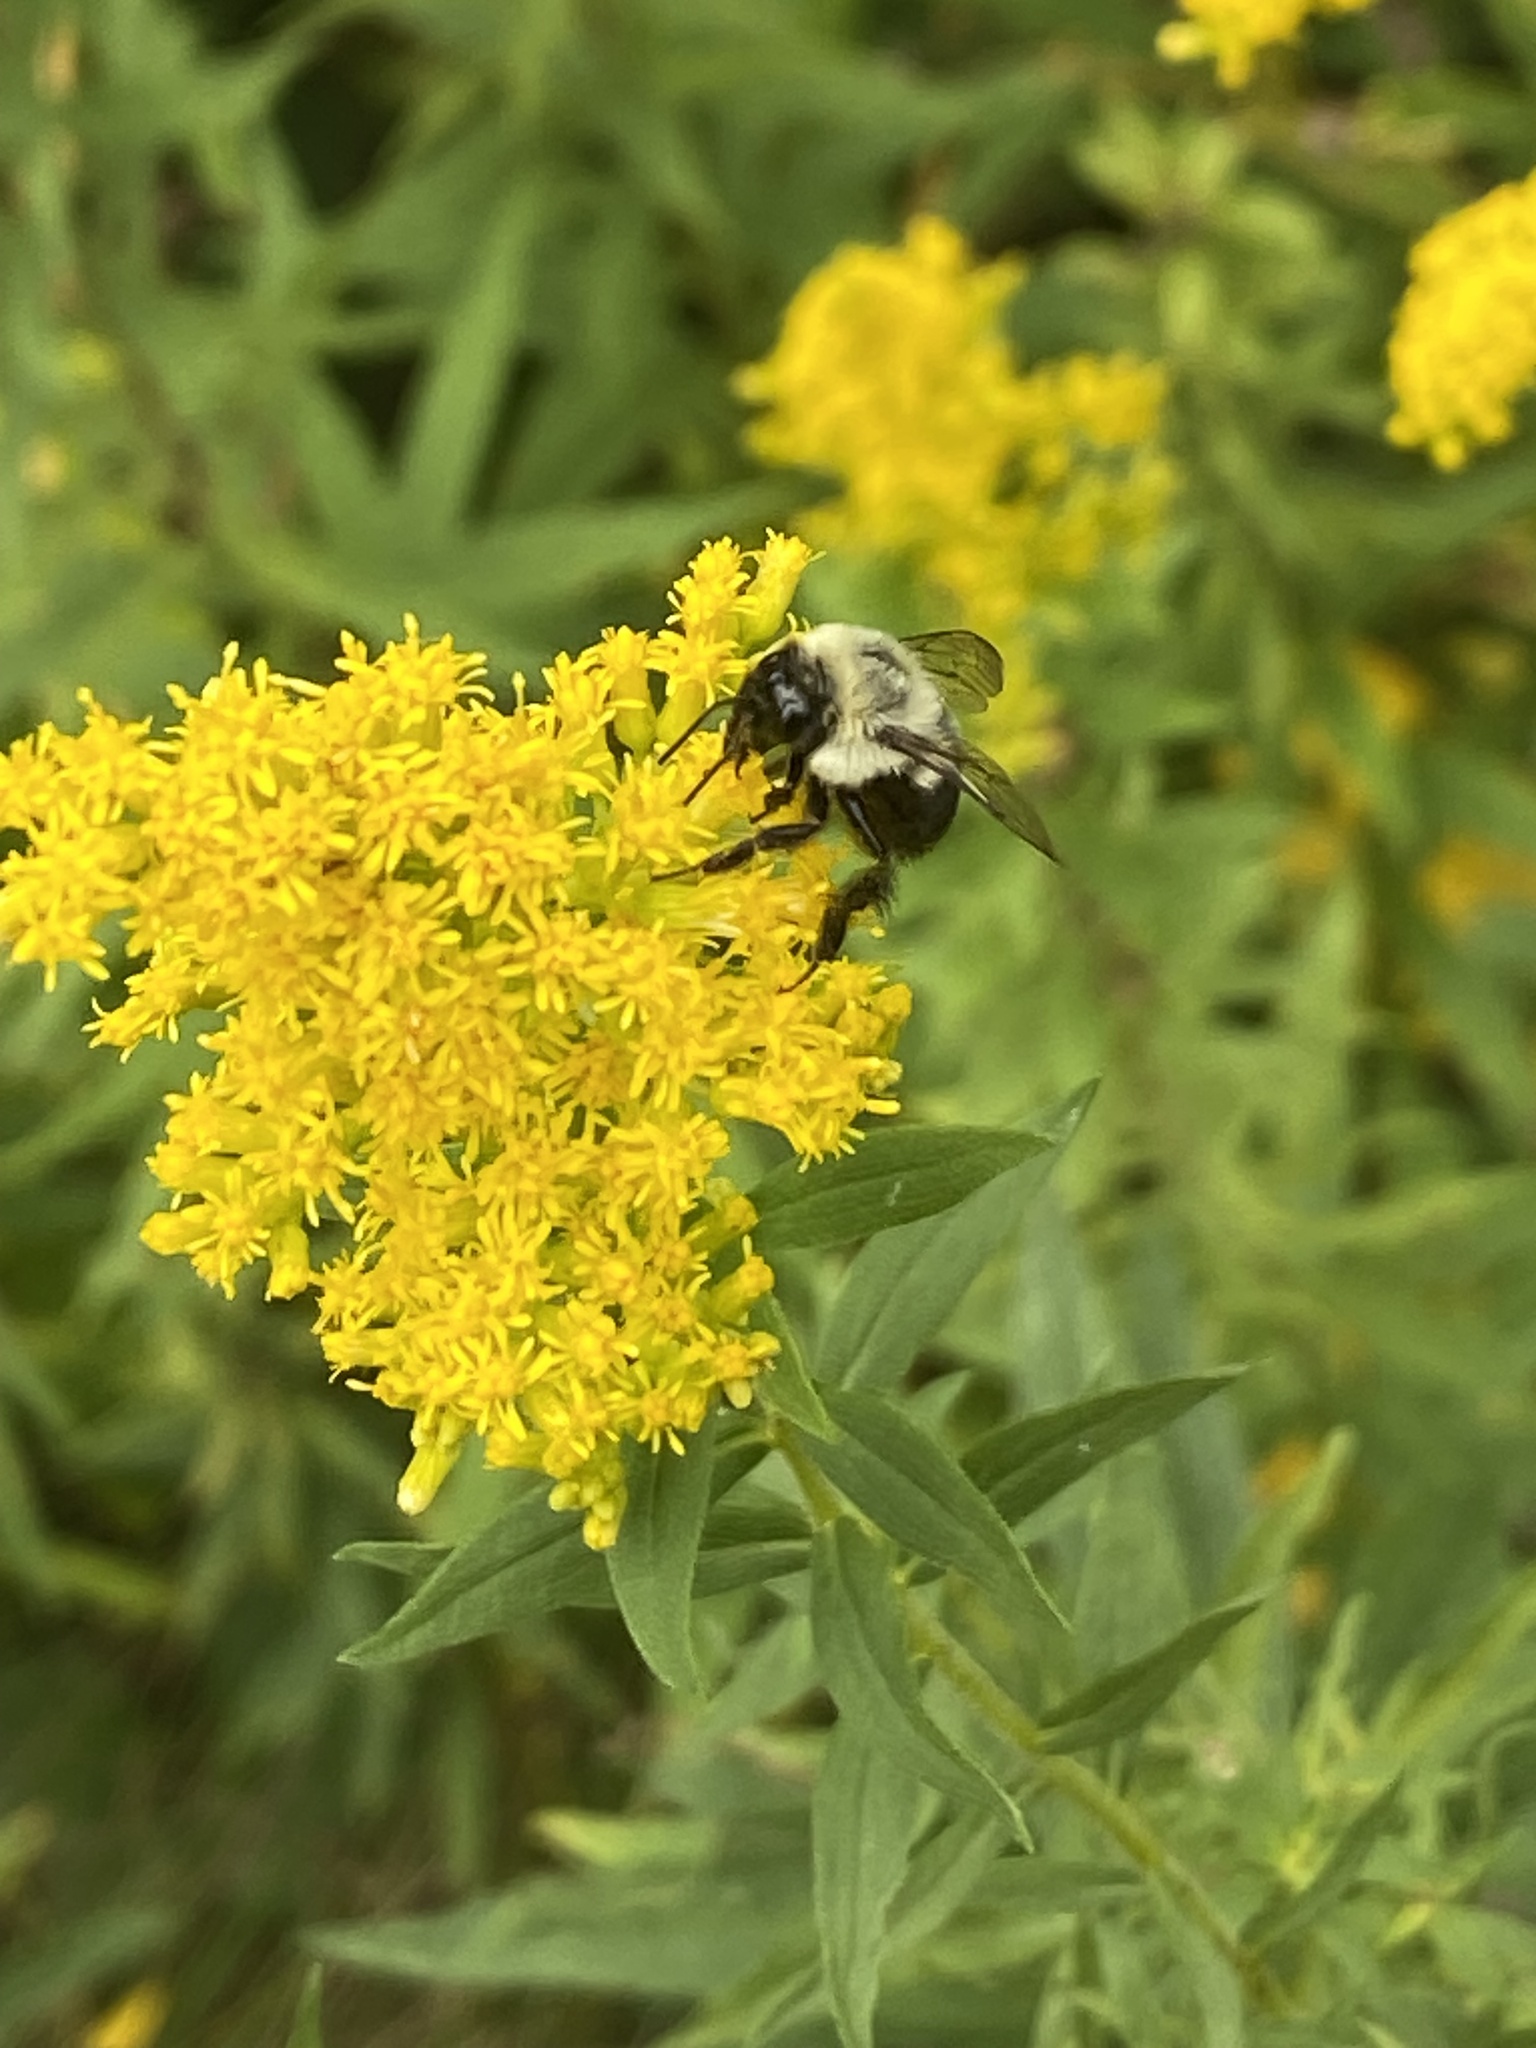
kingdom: Animalia
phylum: Arthropoda
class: Insecta
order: Hymenoptera
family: Apidae
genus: Bombus
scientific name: Bombus impatiens
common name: Common eastern bumble bee
